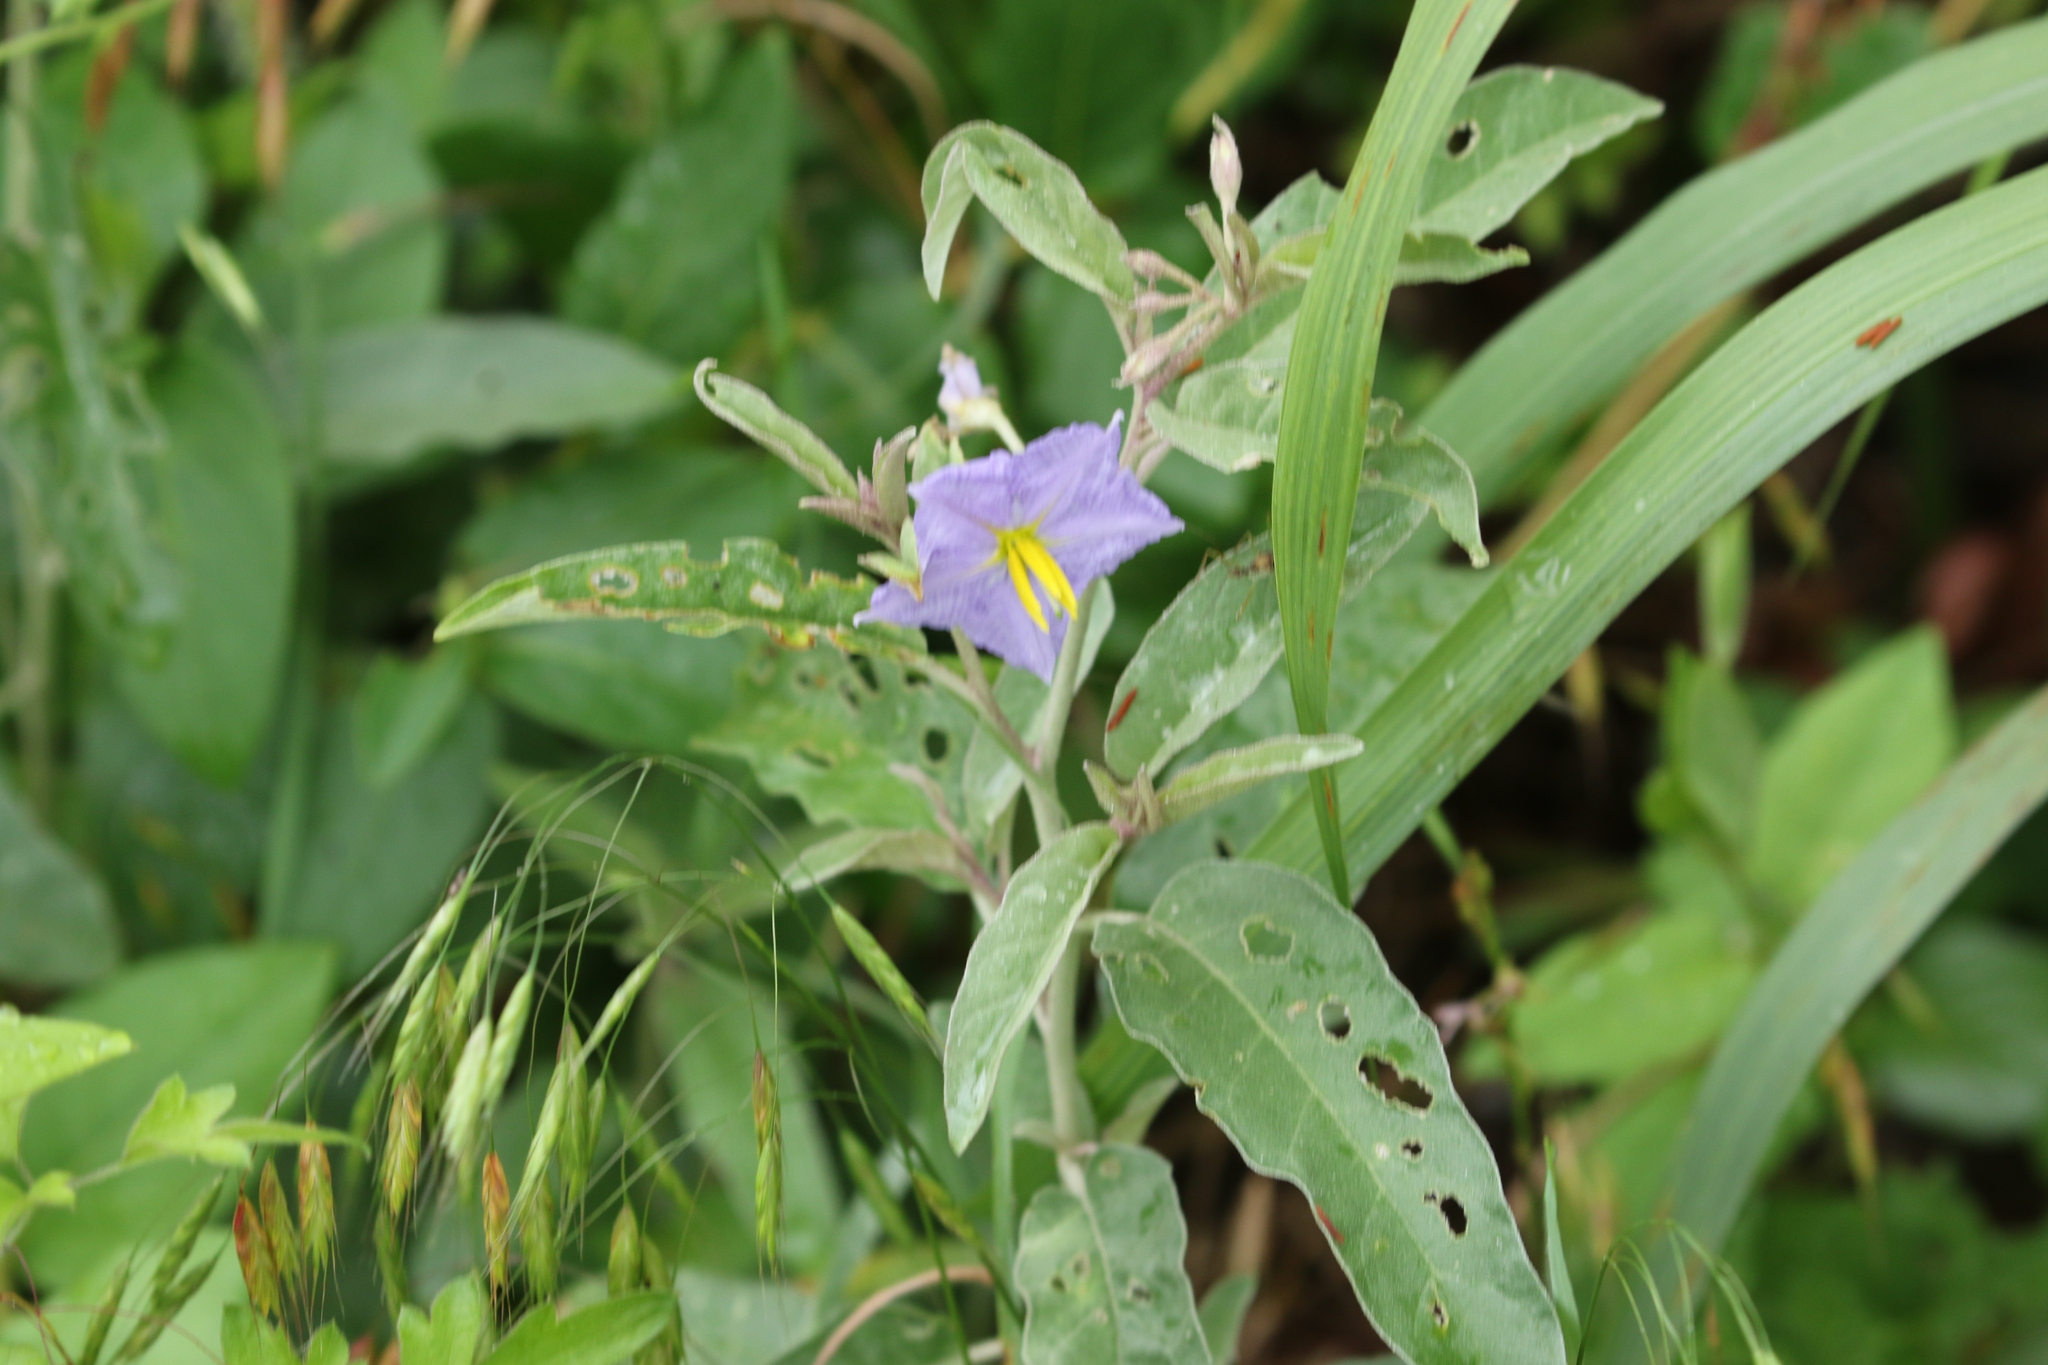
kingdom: Plantae
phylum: Tracheophyta
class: Magnoliopsida
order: Solanales
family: Solanaceae
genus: Solanum
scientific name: Solanum elaeagnifolium
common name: Silverleaf nightshade
